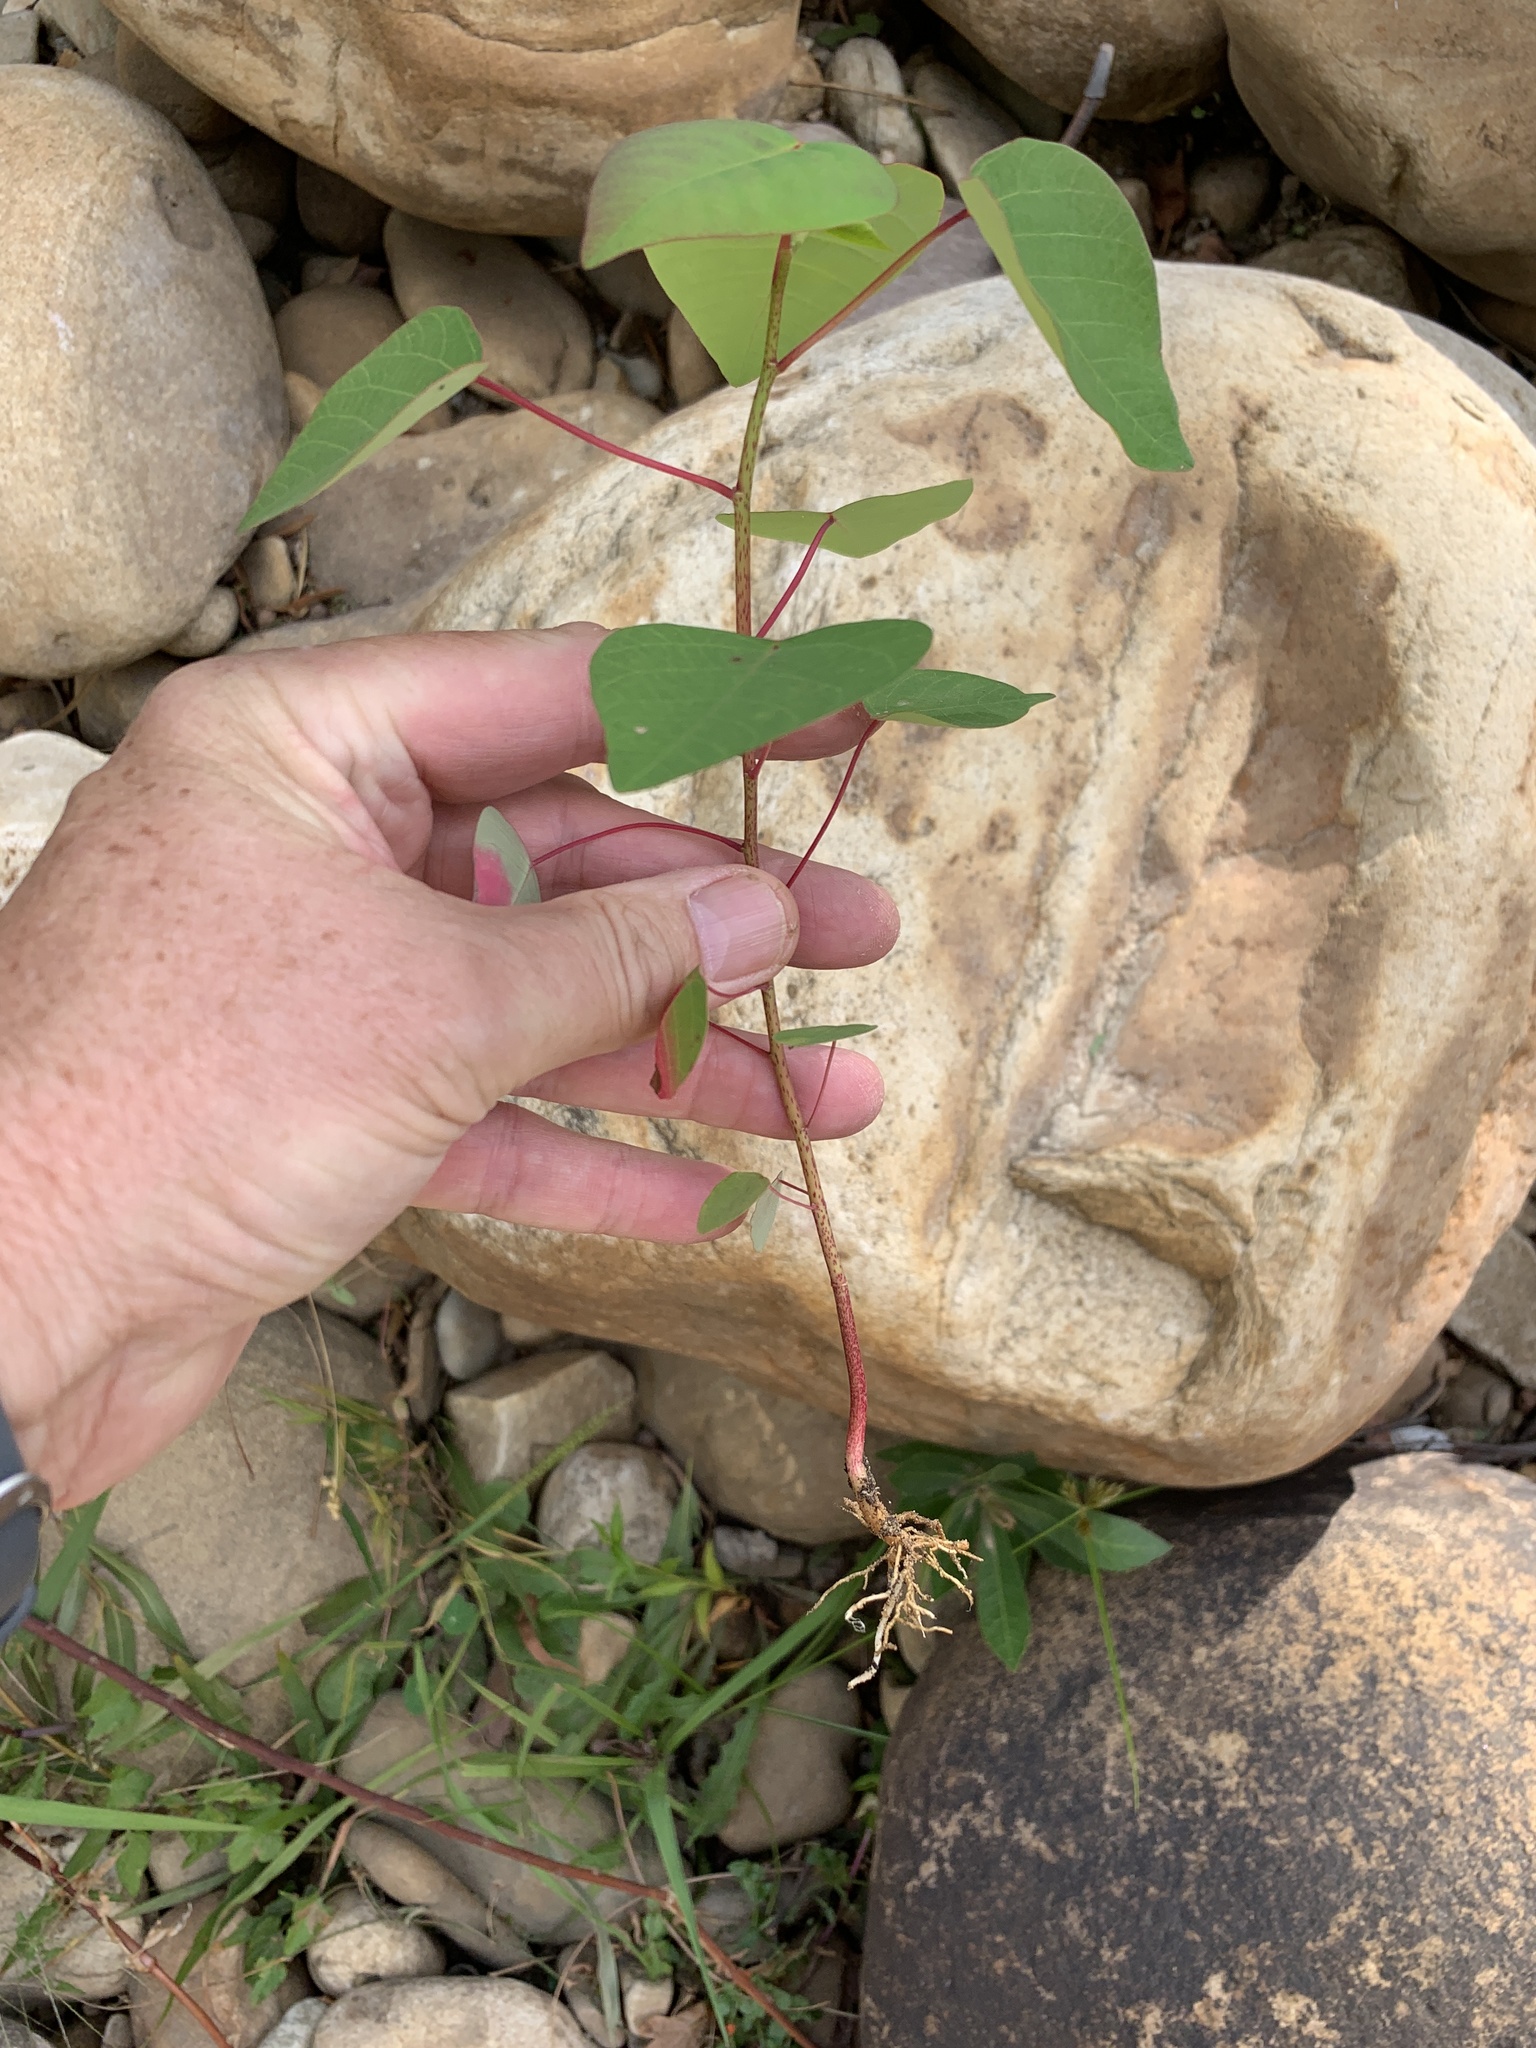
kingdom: Plantae
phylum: Tracheophyta
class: Magnoliopsida
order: Malpighiales
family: Euphorbiaceae
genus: Homalanthus
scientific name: Homalanthus populifolius
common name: Queensland poplar
